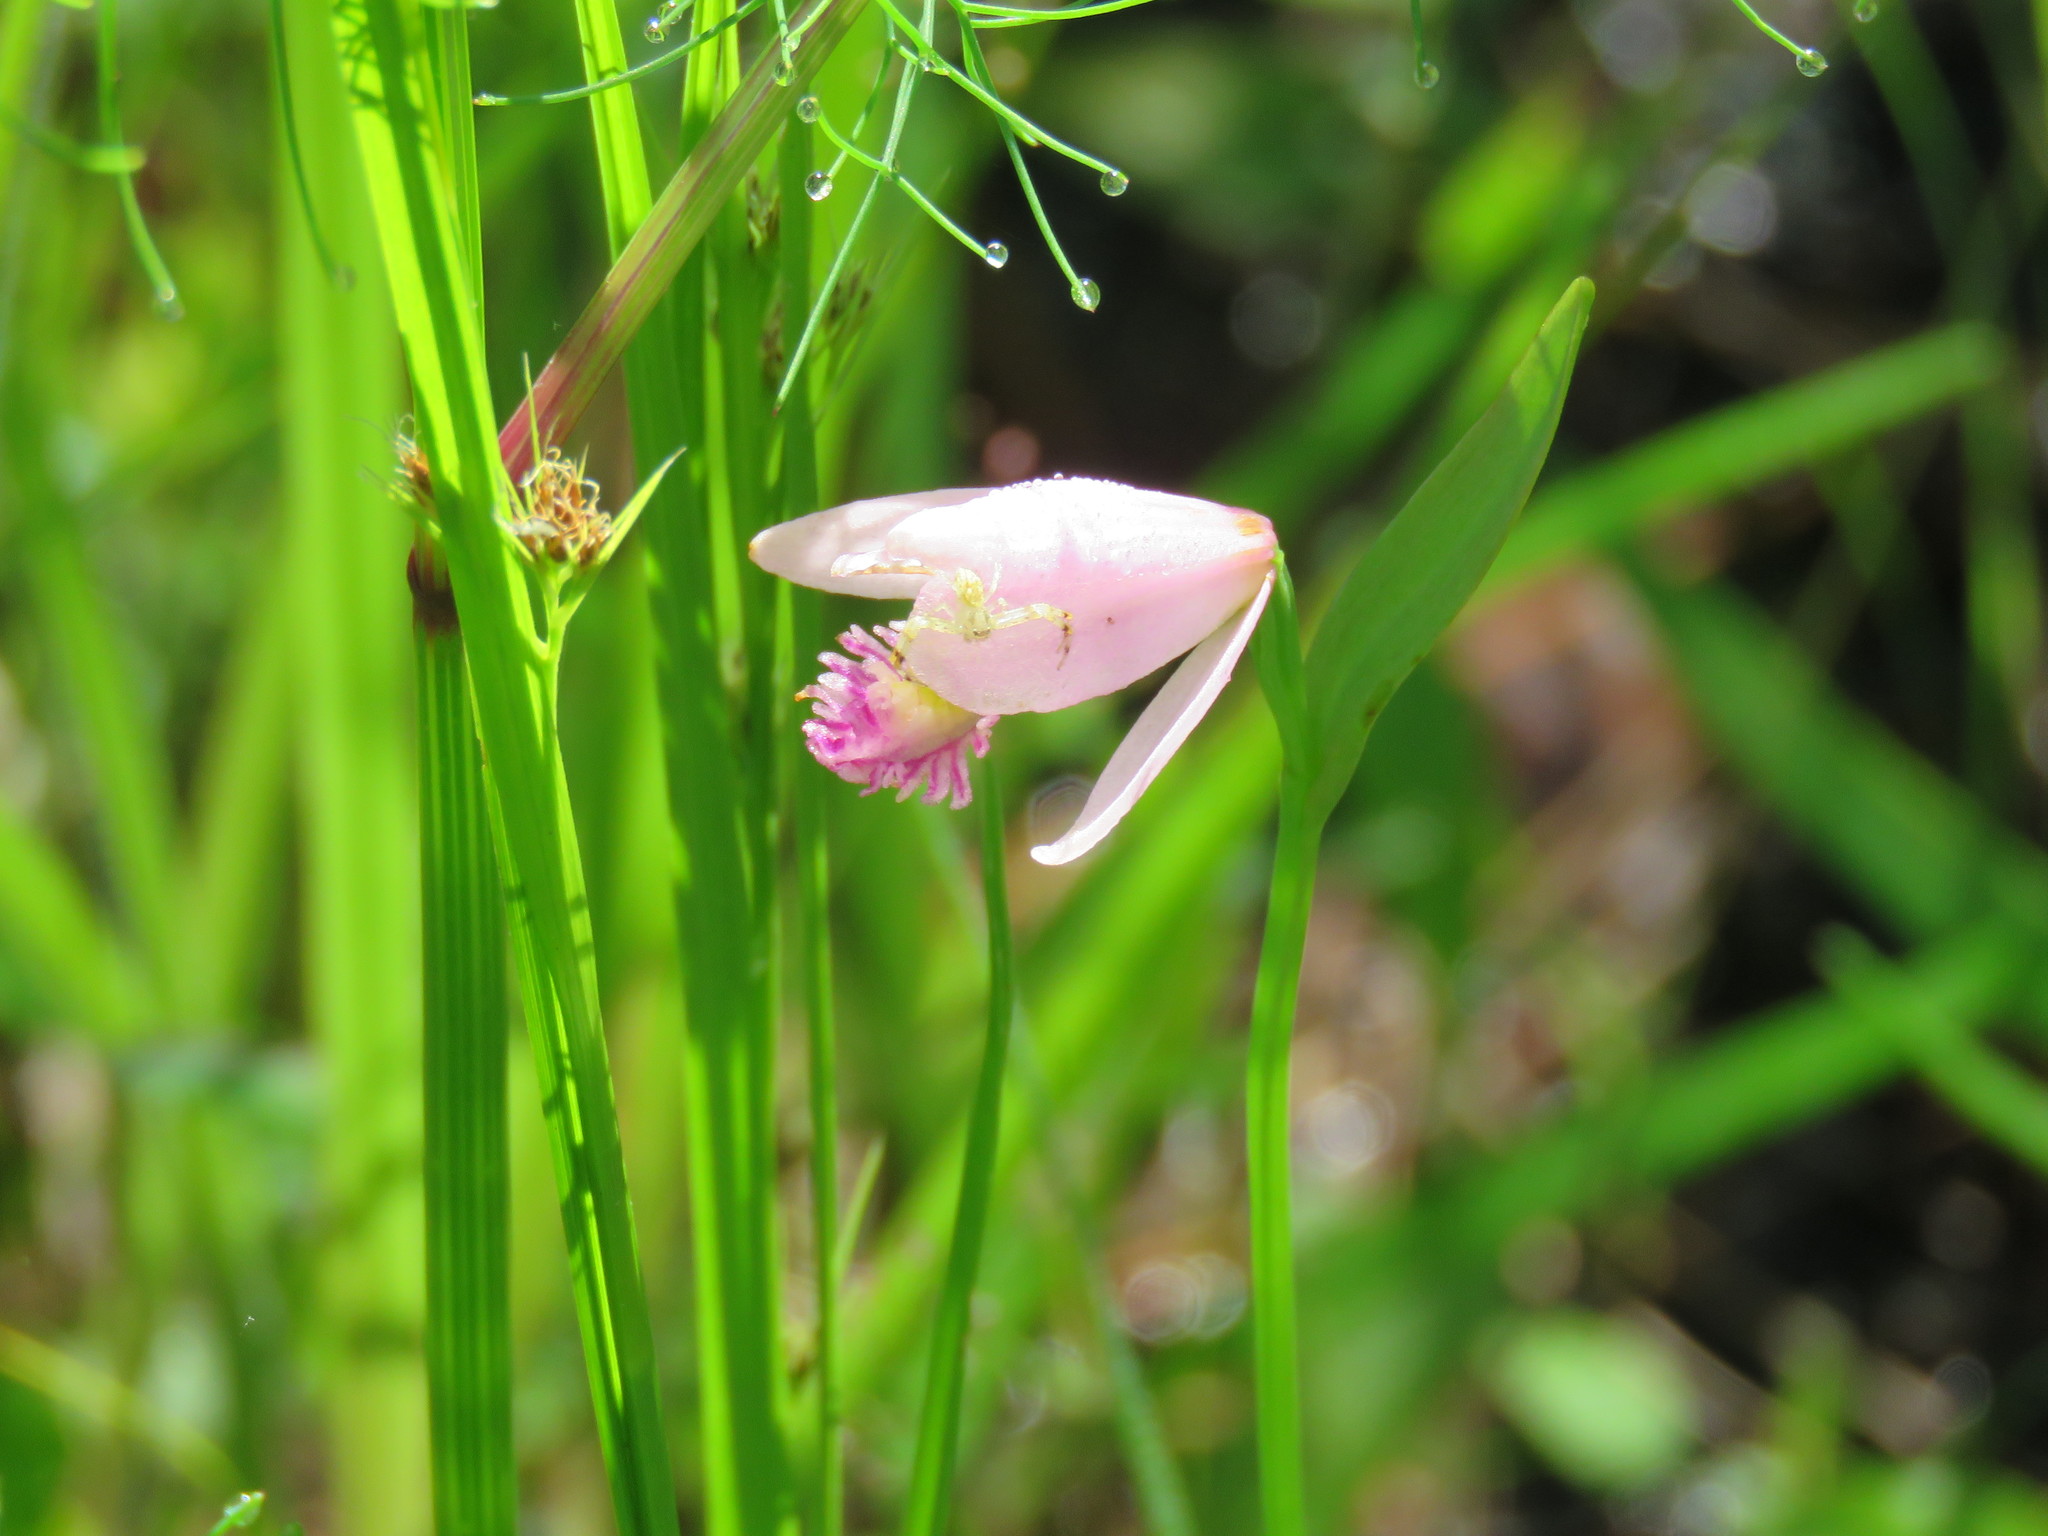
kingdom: Plantae
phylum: Tracheophyta
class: Liliopsida
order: Asparagales
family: Orchidaceae
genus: Pogonia
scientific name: Pogonia ophioglossoides
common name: Rose pogonia
